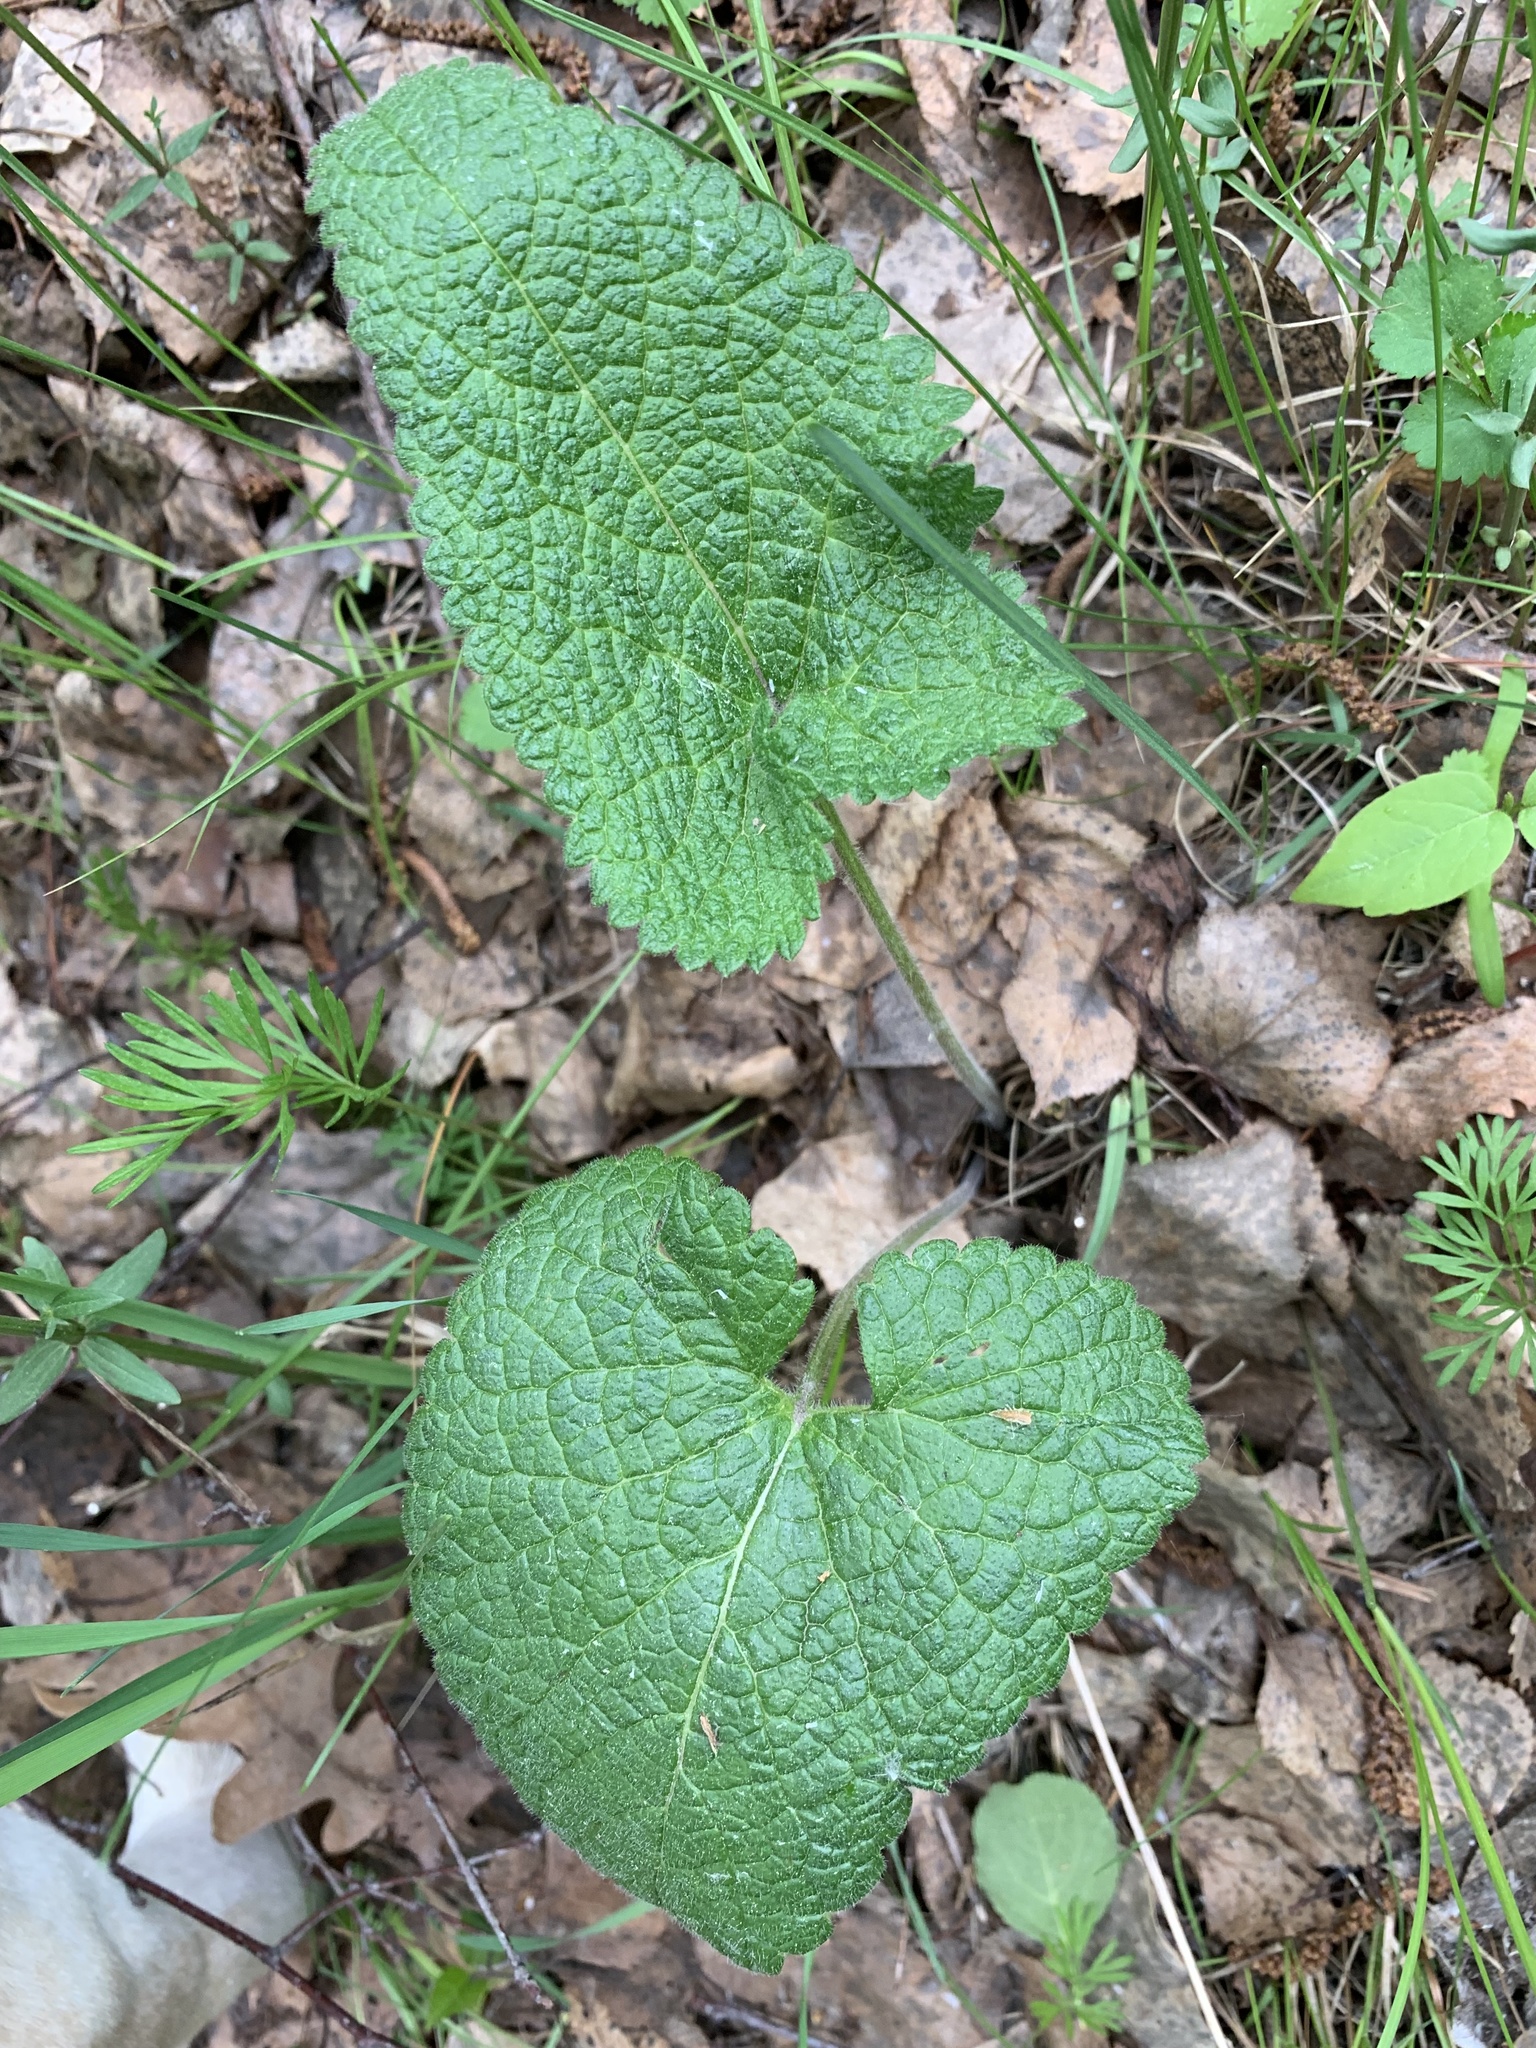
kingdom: Plantae
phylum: Tracheophyta
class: Magnoliopsida
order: Lamiales
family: Lamiaceae
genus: Phlomoides
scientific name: Phlomoides tuberosa
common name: Tuberous jerusalem sage
